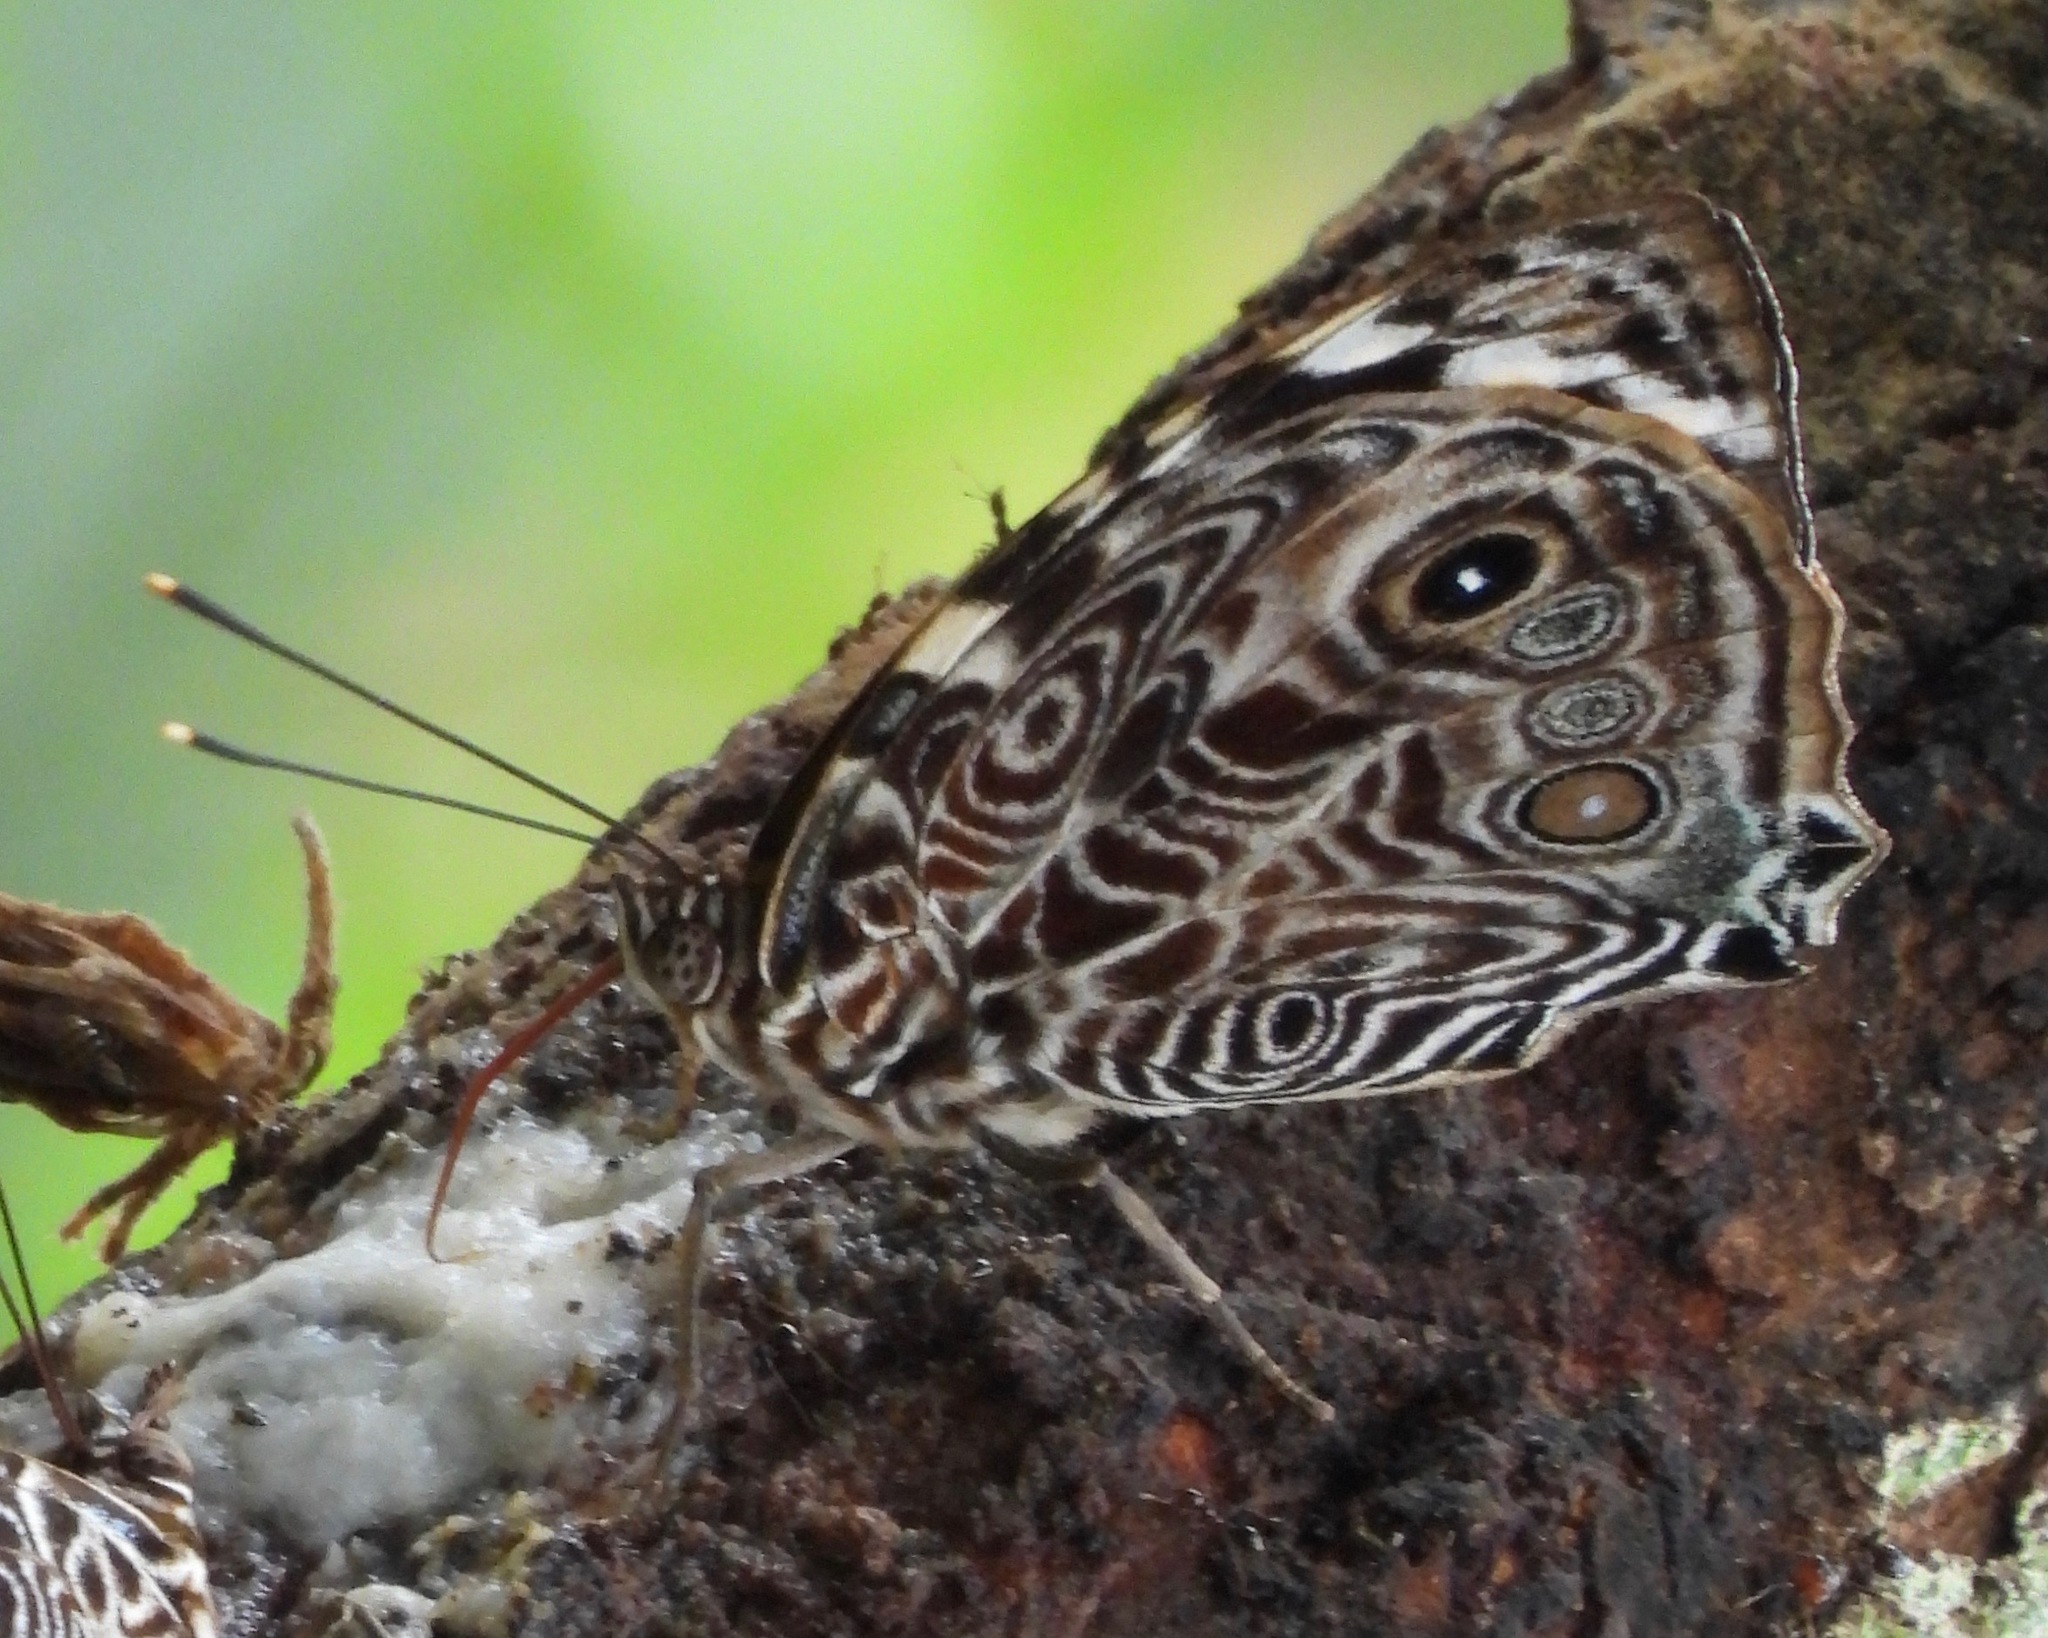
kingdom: Animalia
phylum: Arthropoda
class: Insecta
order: Lepidoptera
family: Nymphalidae
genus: Smyrna
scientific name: Smyrna blomfildia
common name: Blomfild's beauty
